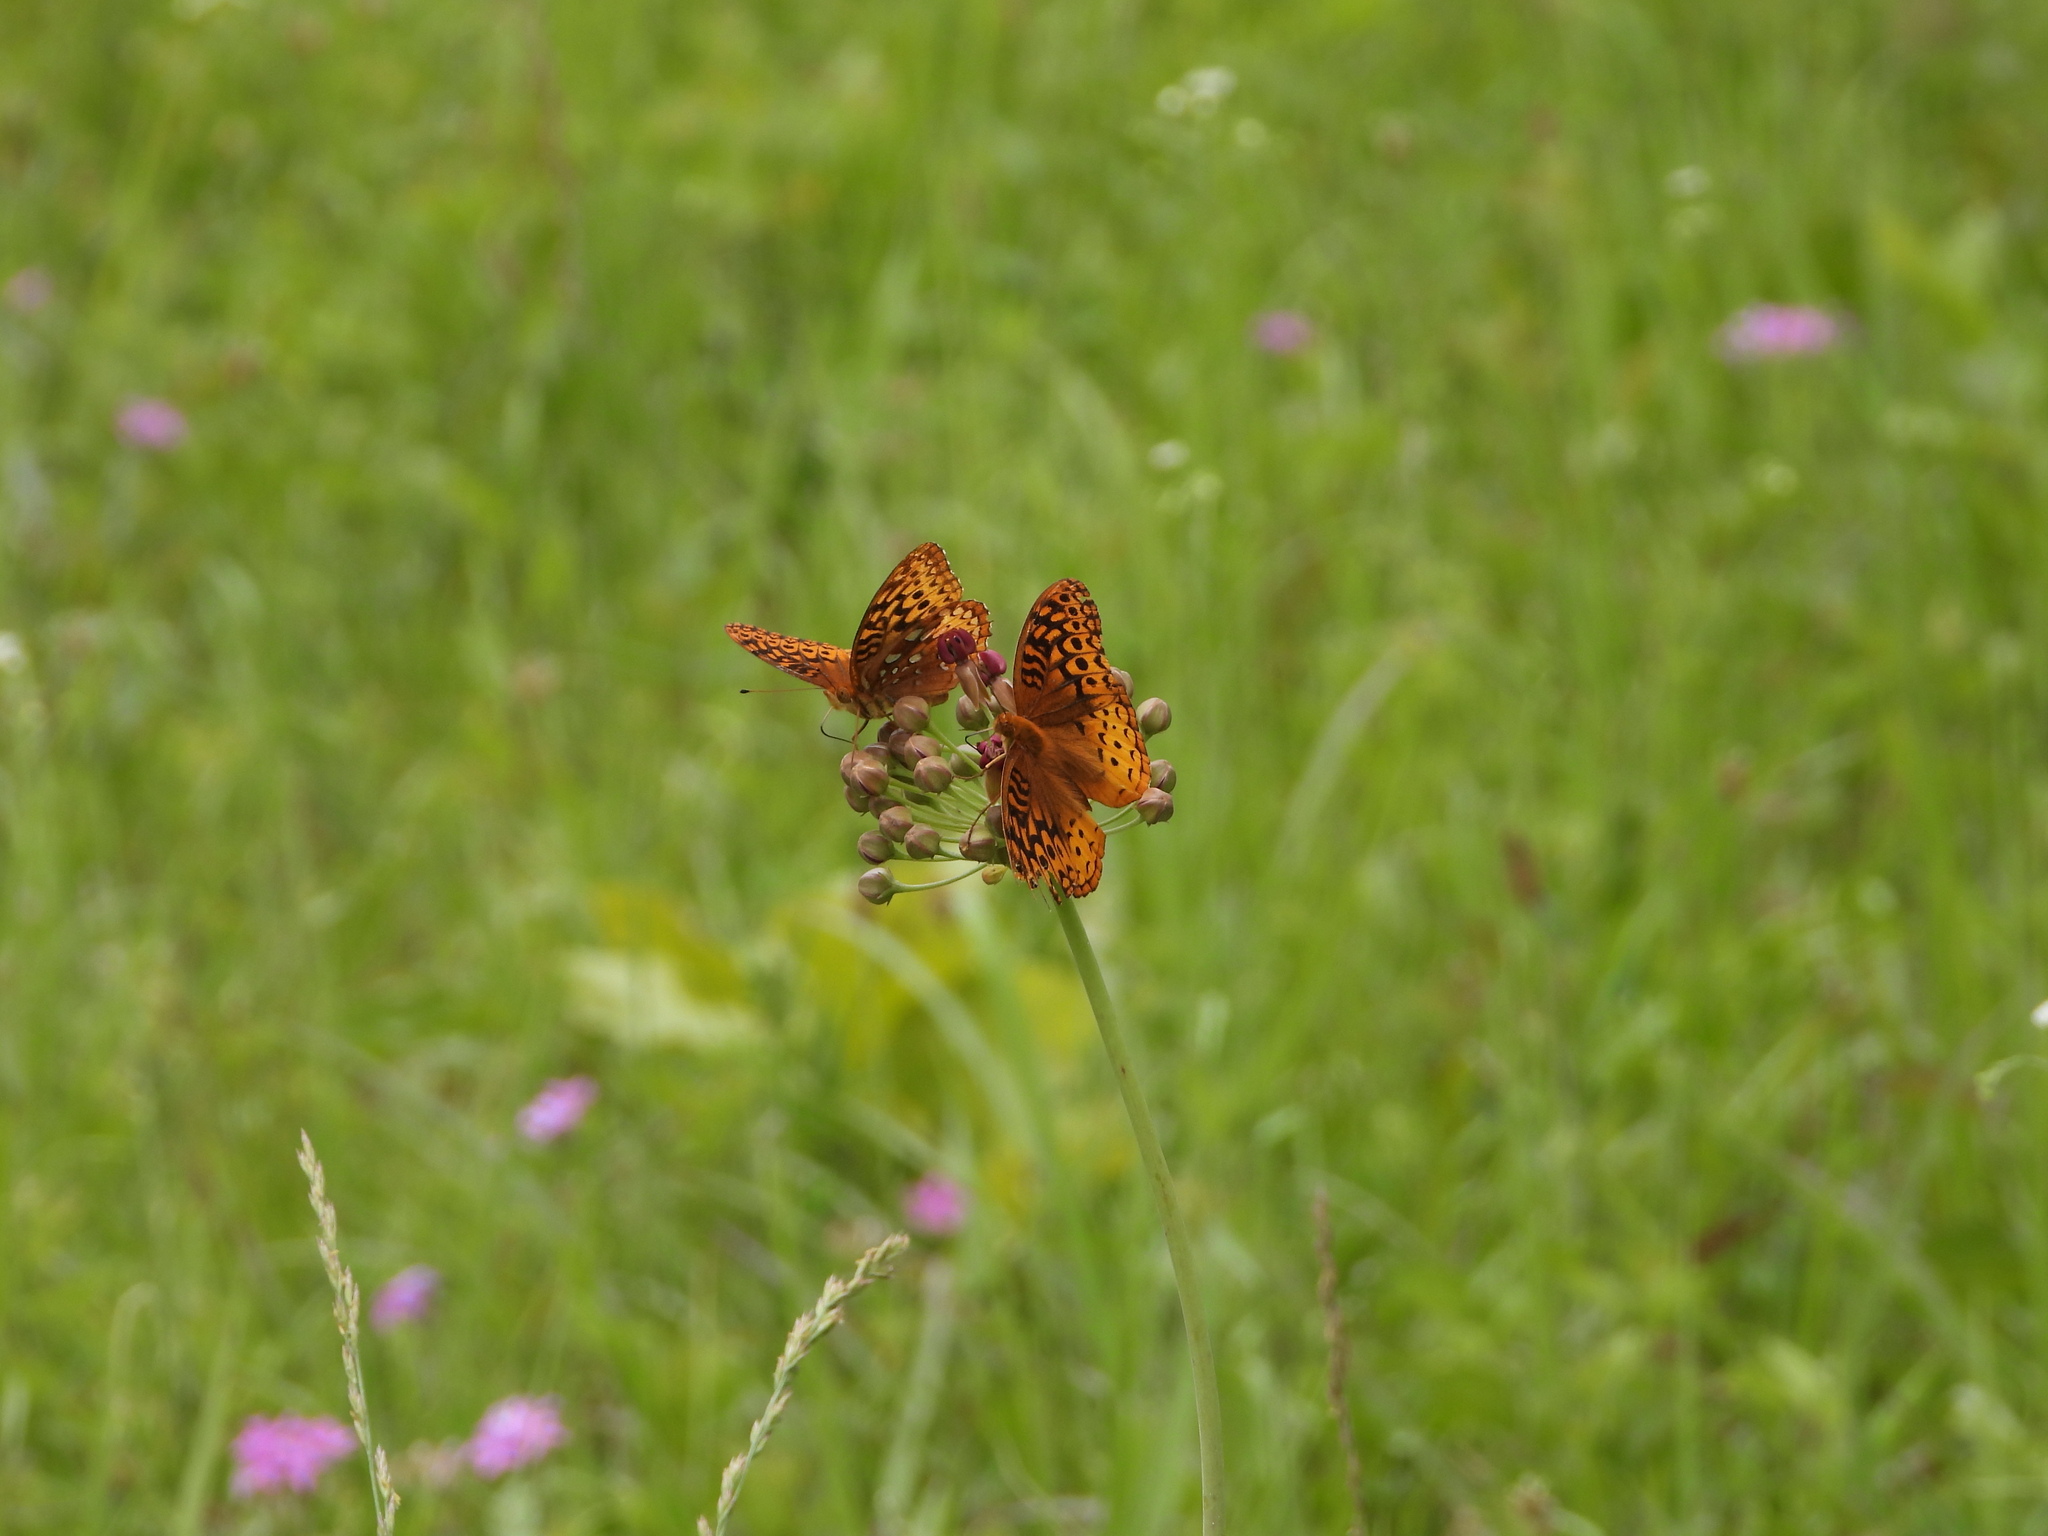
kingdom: Animalia
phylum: Arthropoda
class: Insecta
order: Lepidoptera
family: Nymphalidae
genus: Speyeria
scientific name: Speyeria cybele
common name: Great spangled fritillary
